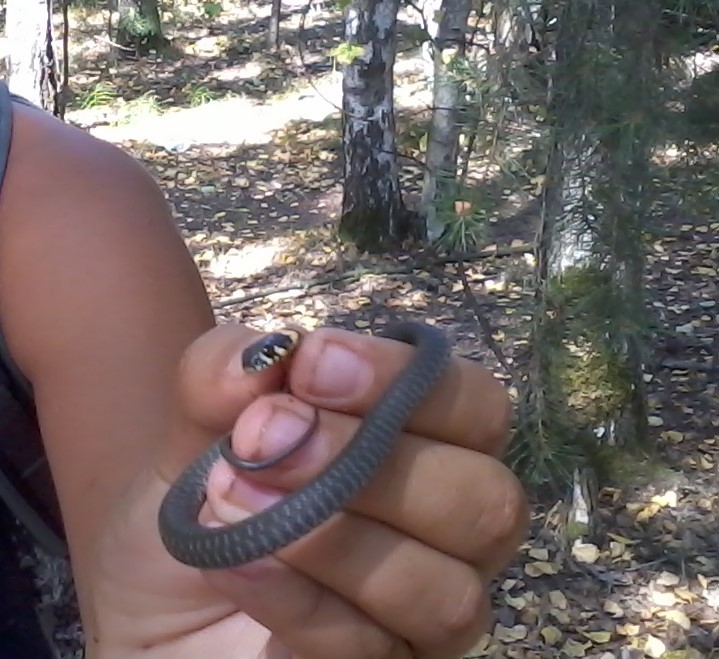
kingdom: Animalia
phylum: Chordata
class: Squamata
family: Colubridae
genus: Natrix
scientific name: Natrix natrix
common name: Grass snake
